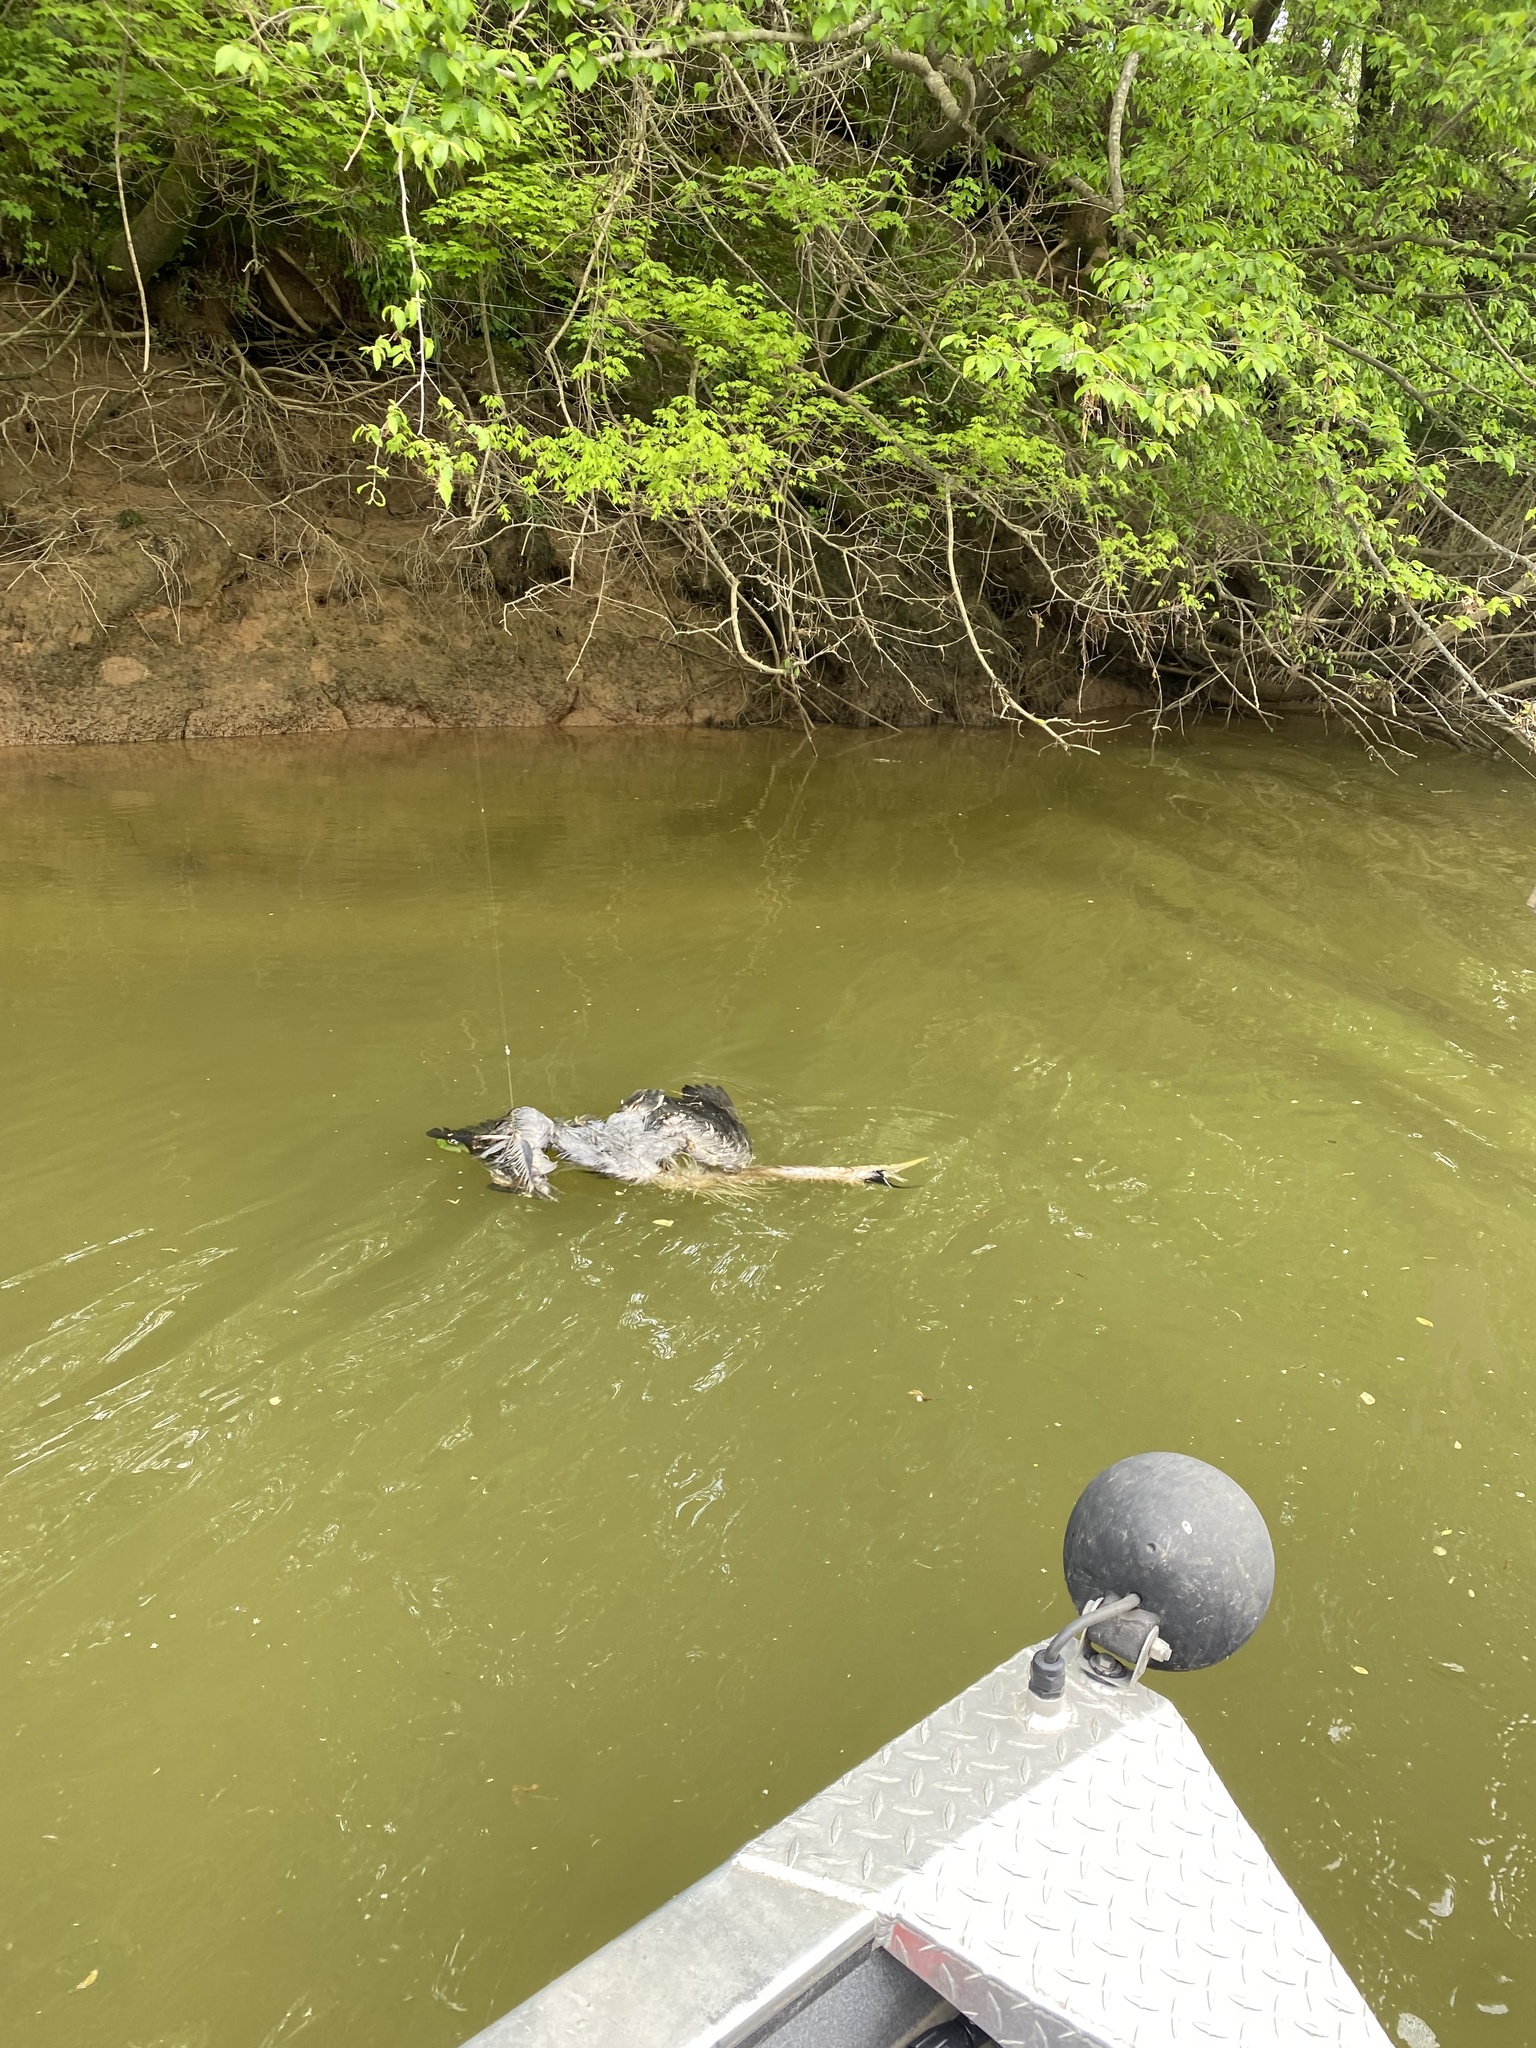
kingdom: Animalia
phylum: Chordata
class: Aves
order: Pelecaniformes
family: Ardeidae
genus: Ardea
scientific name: Ardea herodias
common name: Great blue heron
